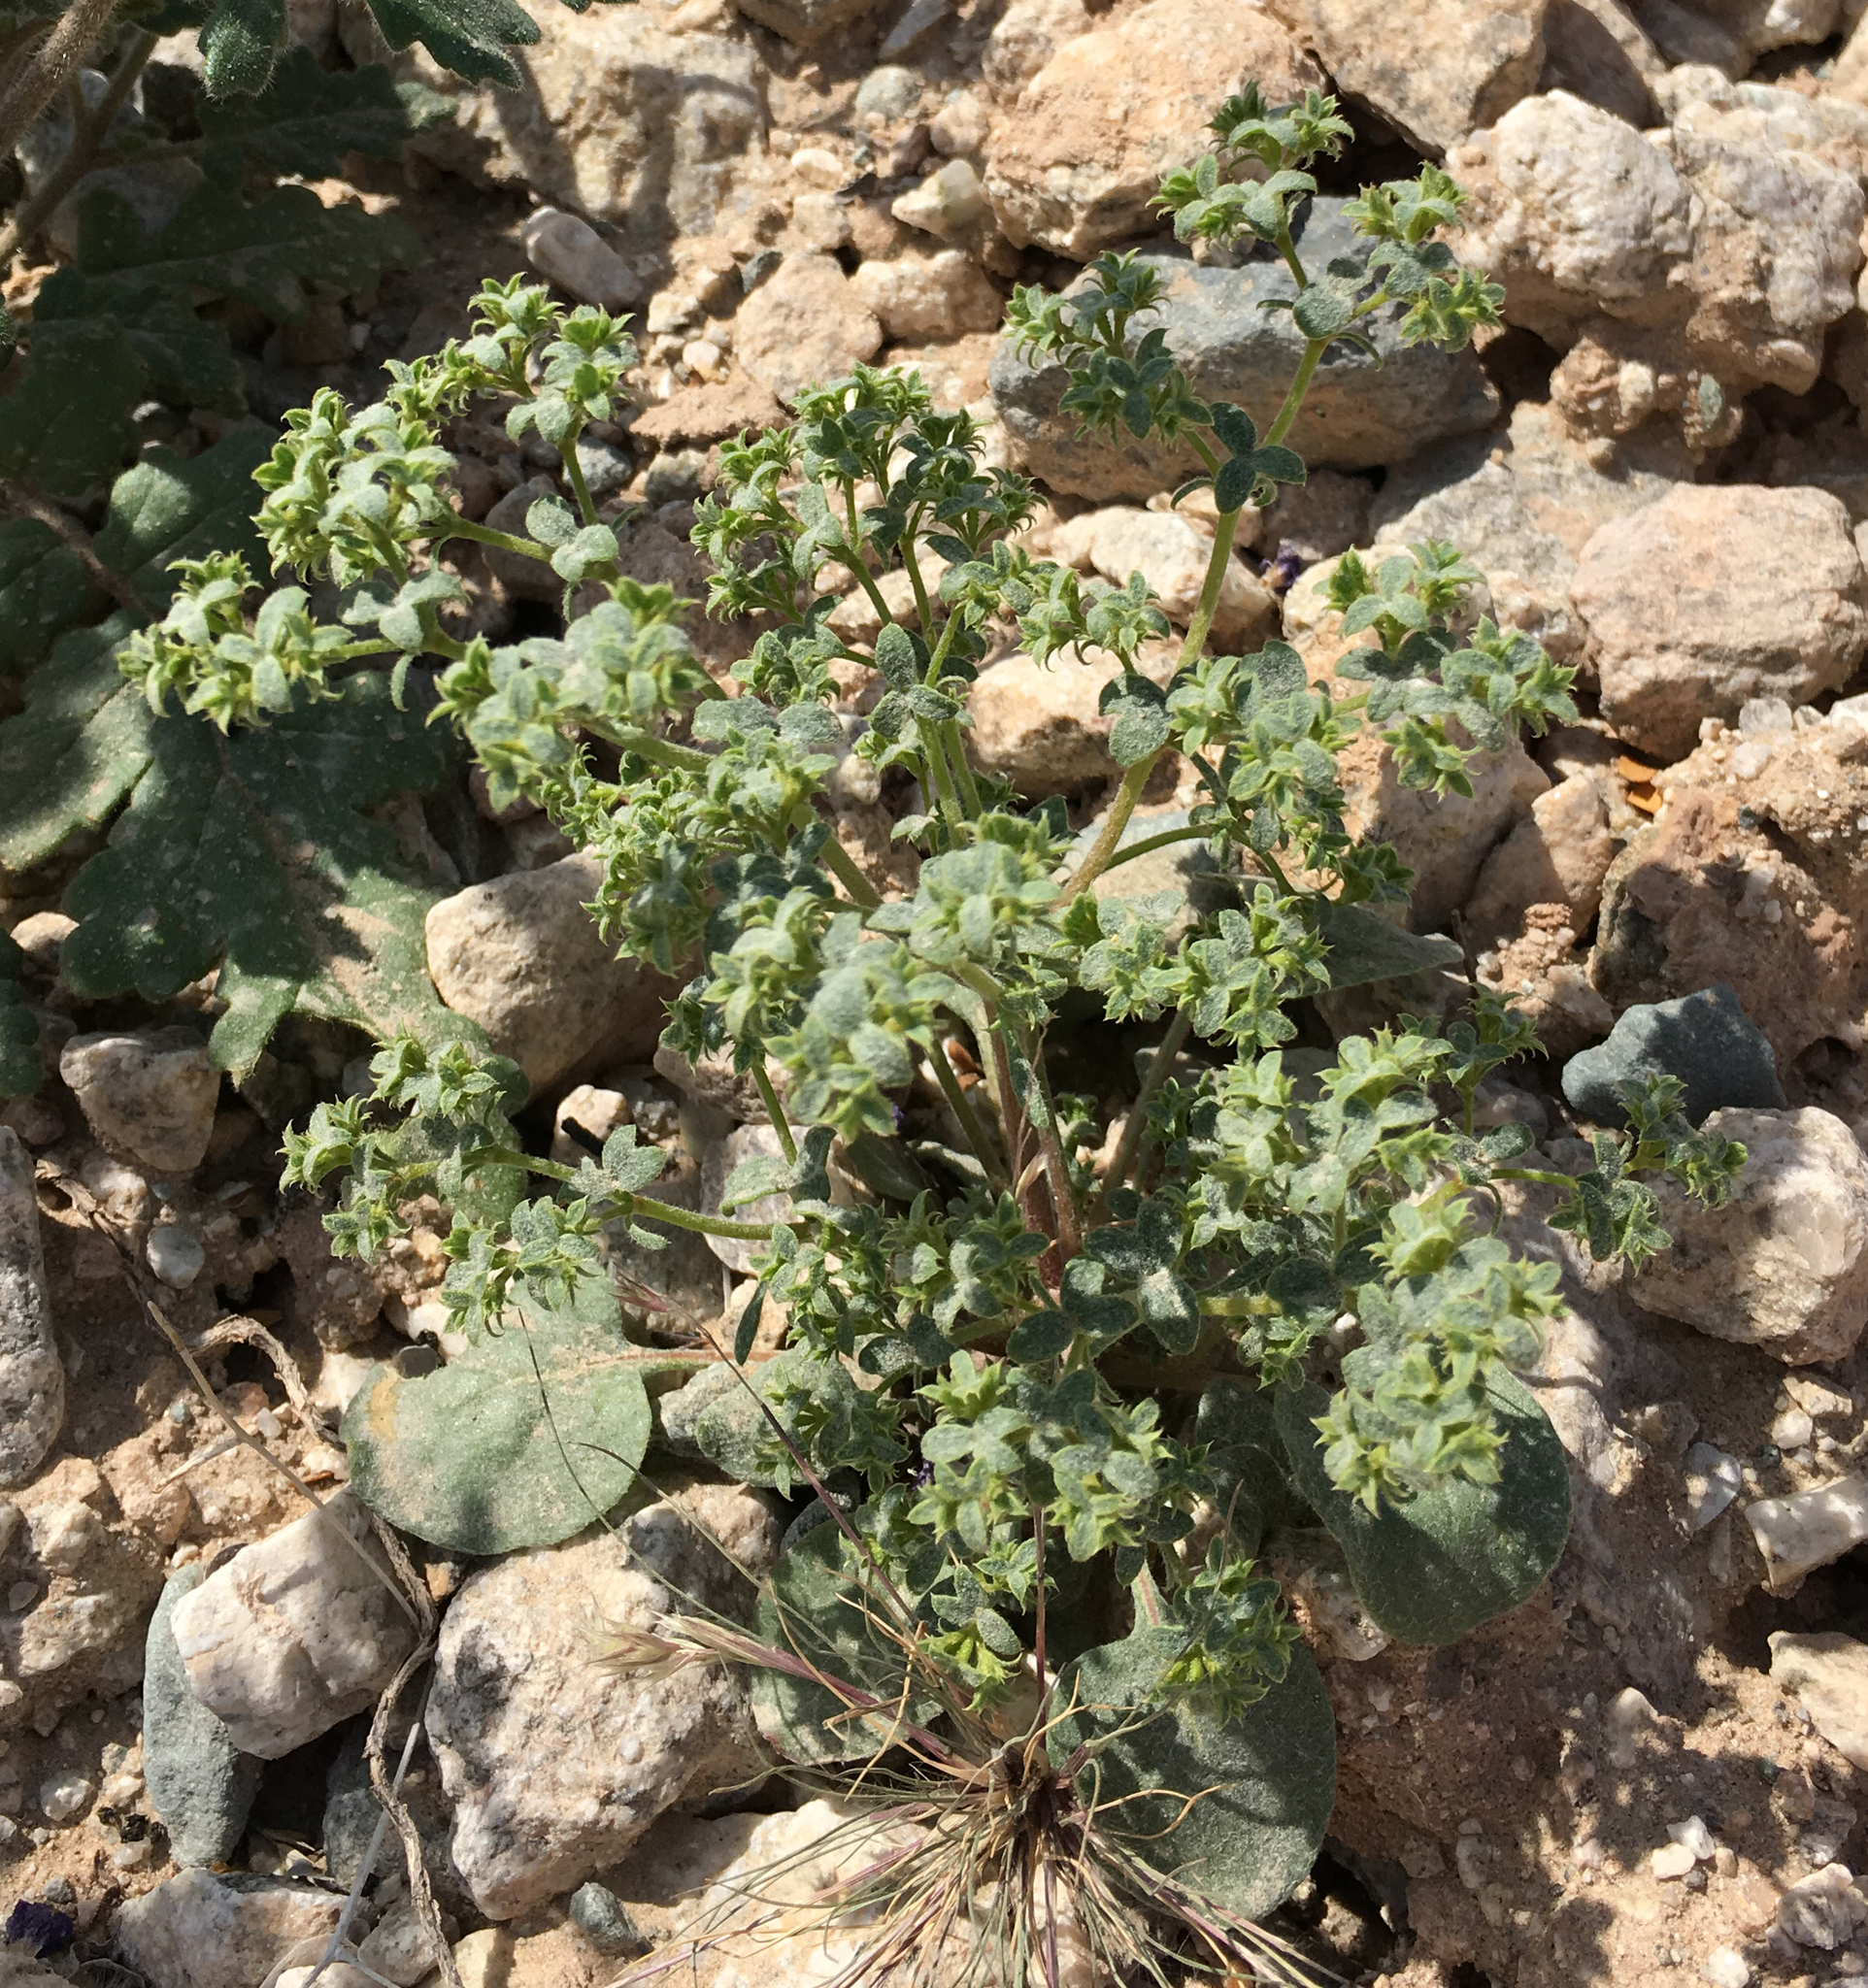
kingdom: Plantae
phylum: Tracheophyta
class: Magnoliopsida
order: Caryophyllales
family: Polygonaceae
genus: Chorizanthe
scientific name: Chorizanthe corrugata
